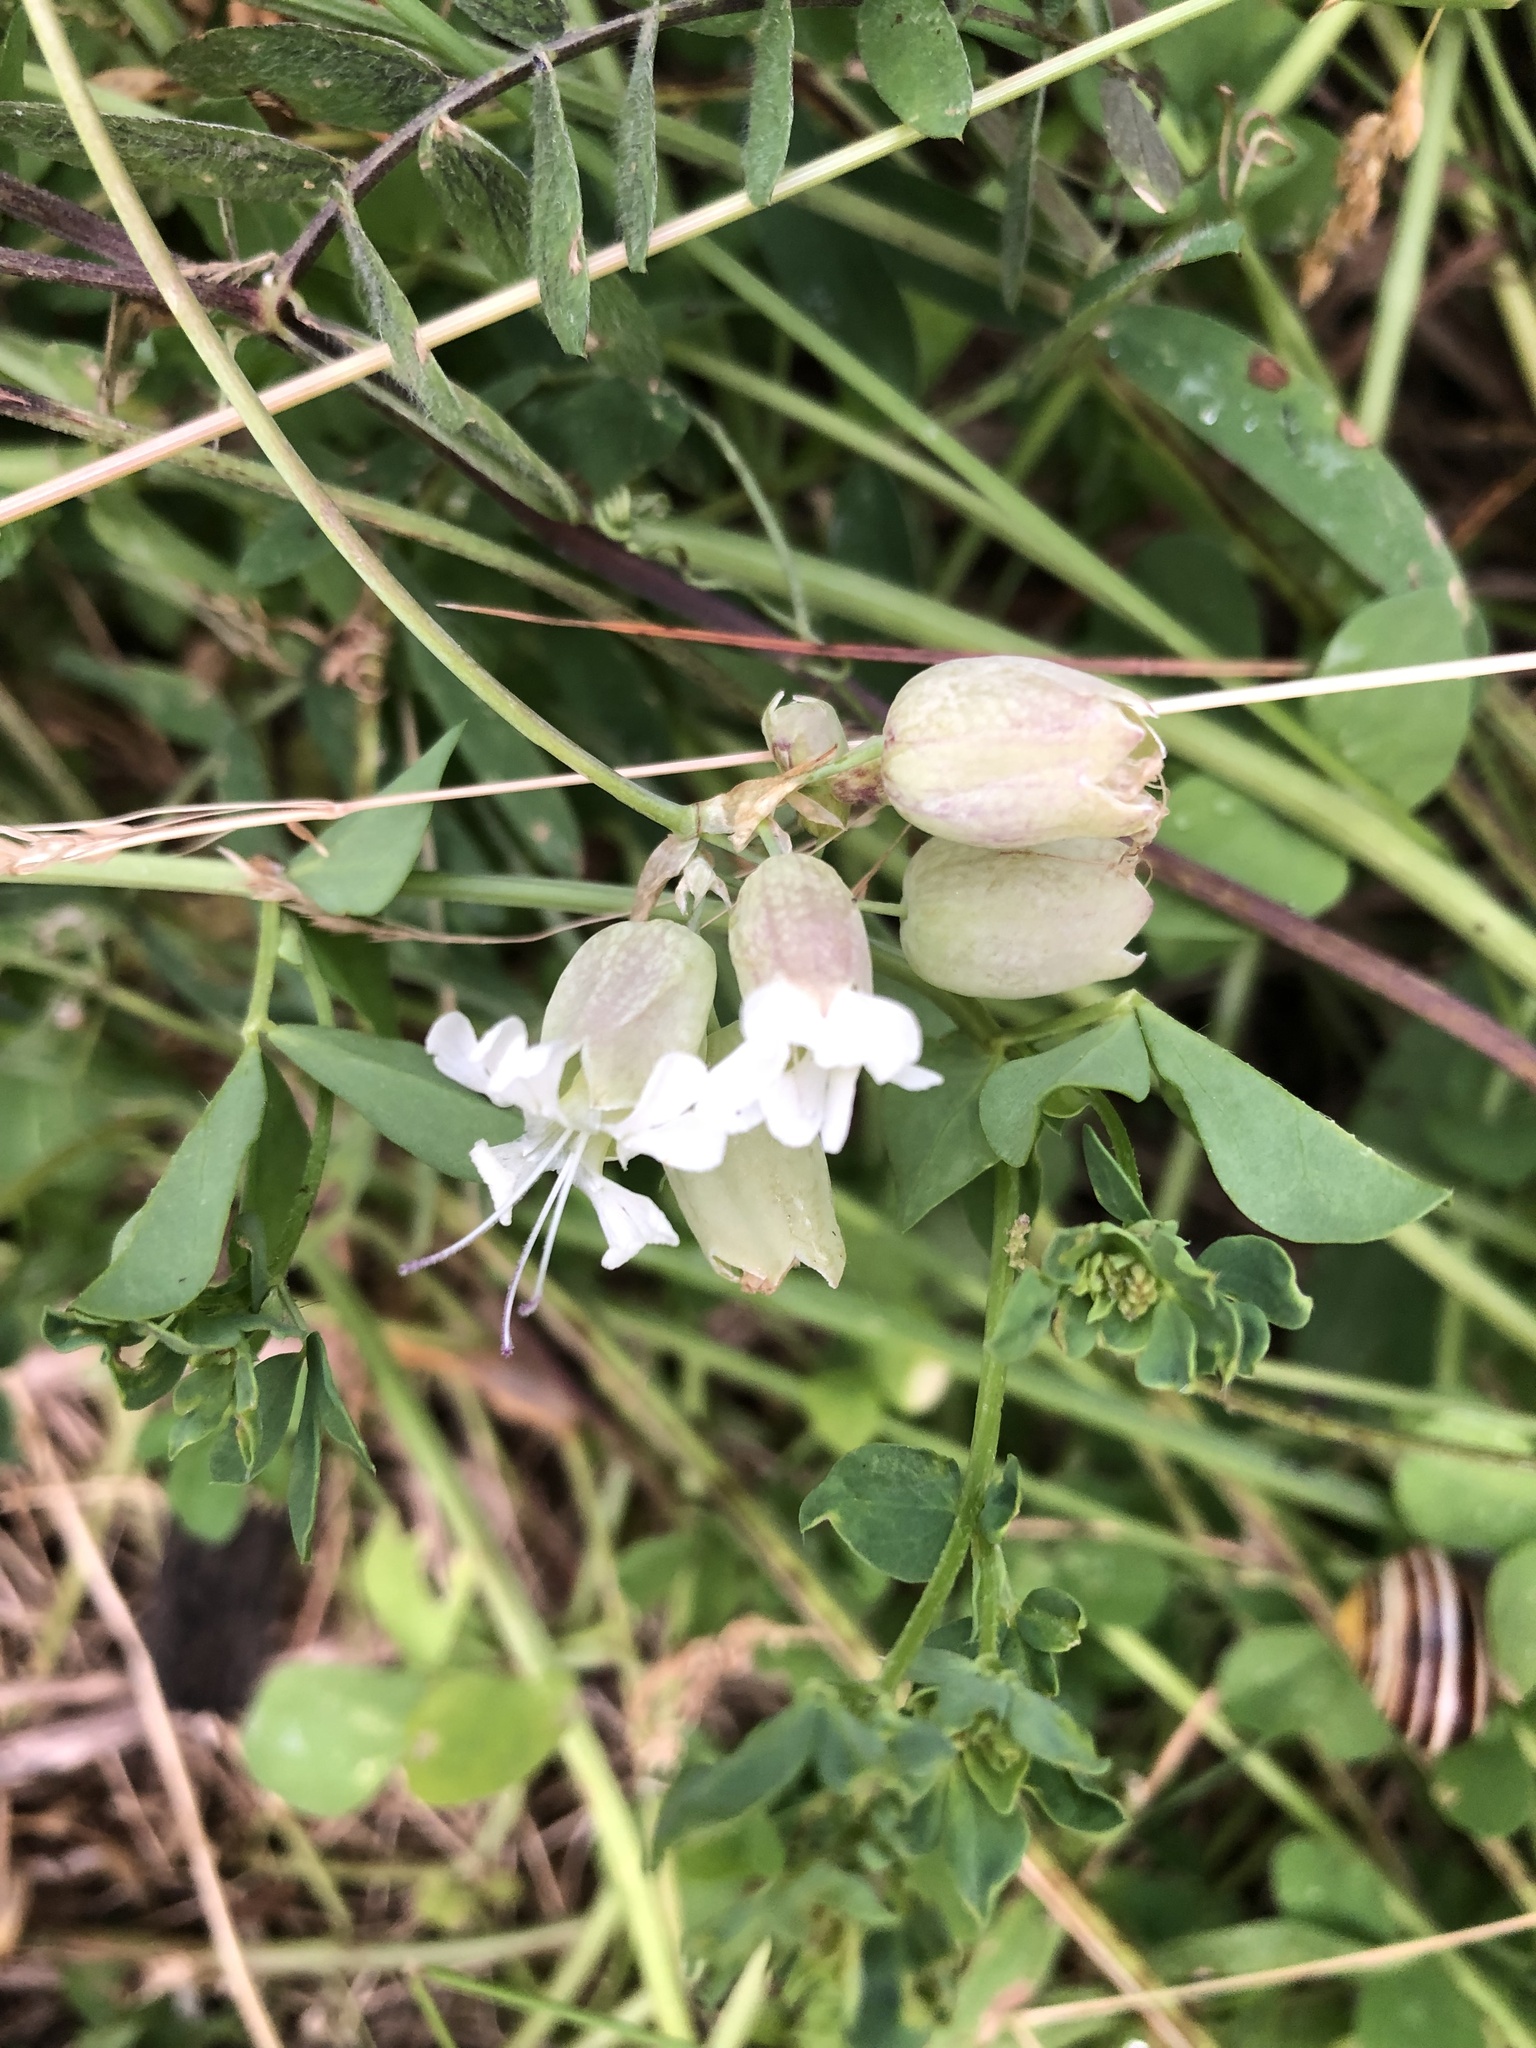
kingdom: Plantae
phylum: Tracheophyta
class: Magnoliopsida
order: Caryophyllales
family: Caryophyllaceae
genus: Silene
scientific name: Silene vulgaris
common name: Bladder campion
